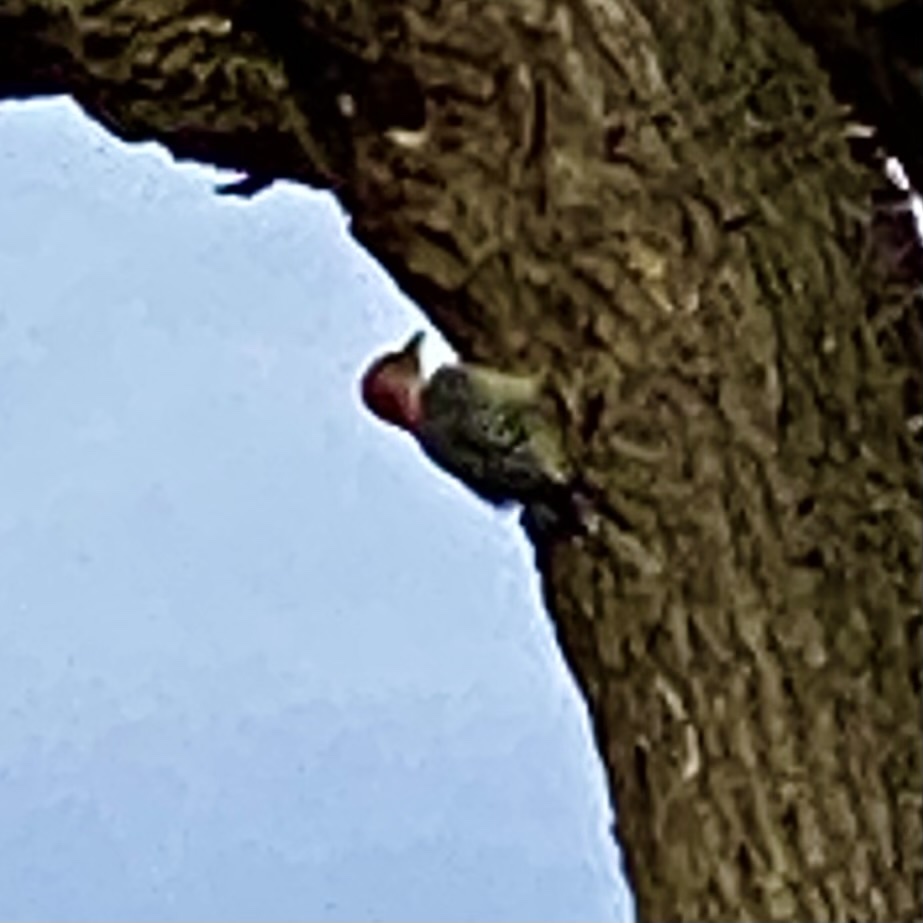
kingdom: Animalia
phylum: Chordata
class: Aves
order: Piciformes
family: Picidae
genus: Melanerpes
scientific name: Melanerpes carolinus
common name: Red-bellied woodpecker
